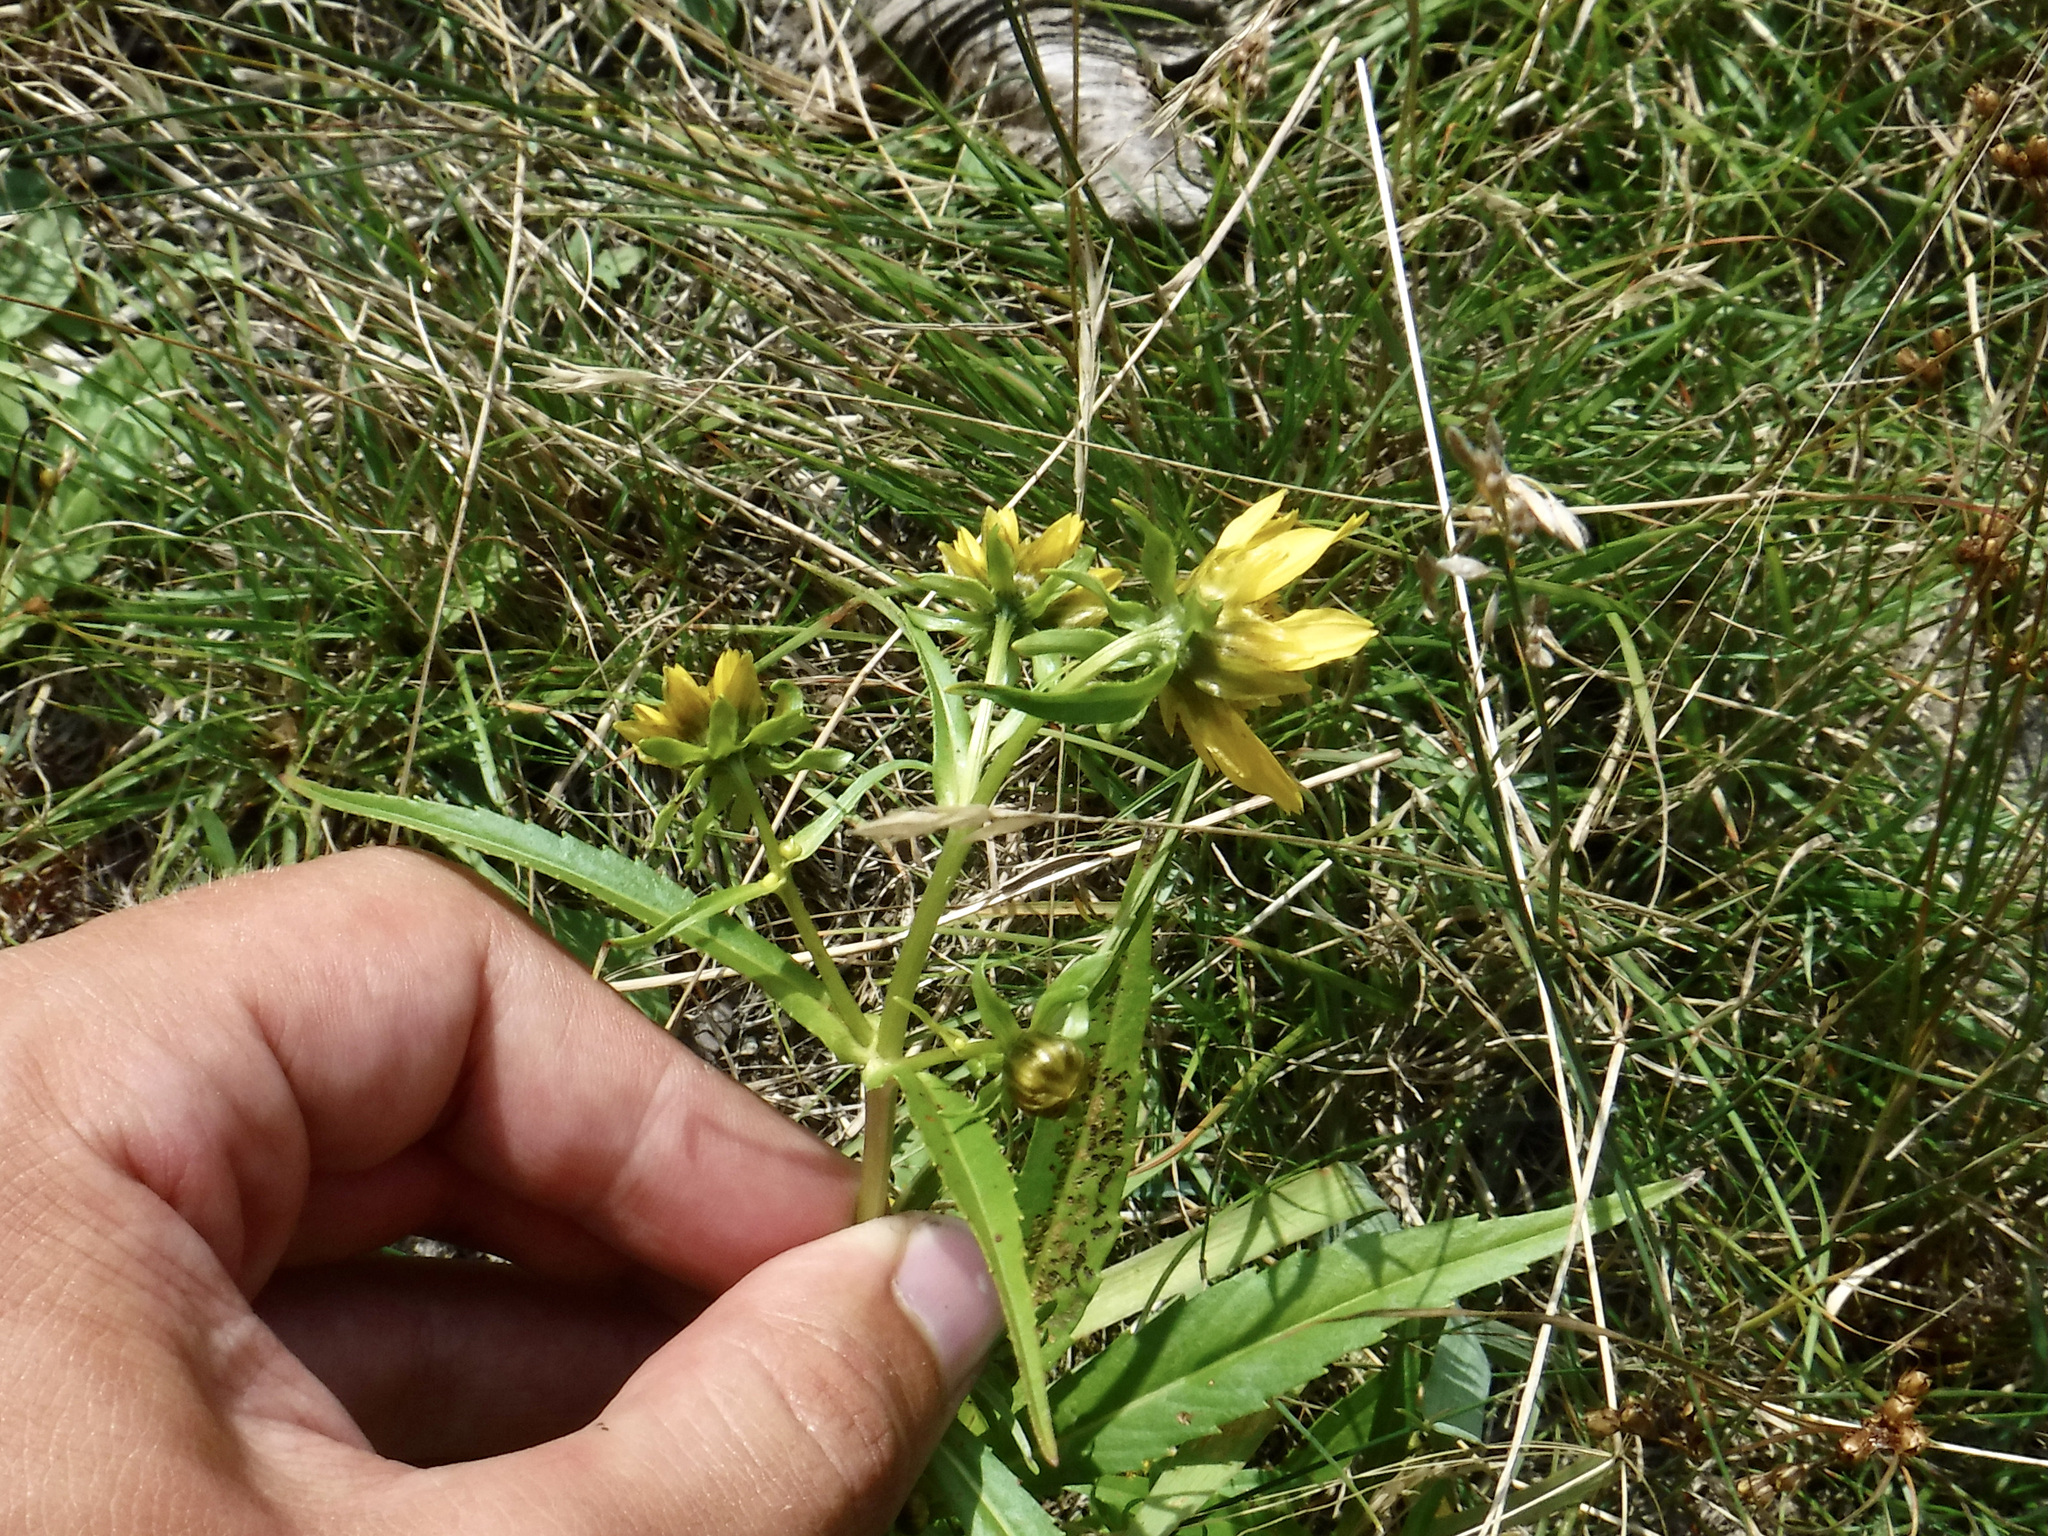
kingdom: Plantae
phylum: Tracheophyta
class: Magnoliopsida
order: Asterales
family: Asteraceae
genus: Bidens
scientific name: Bidens cernua
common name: Nodding bur-marigold
